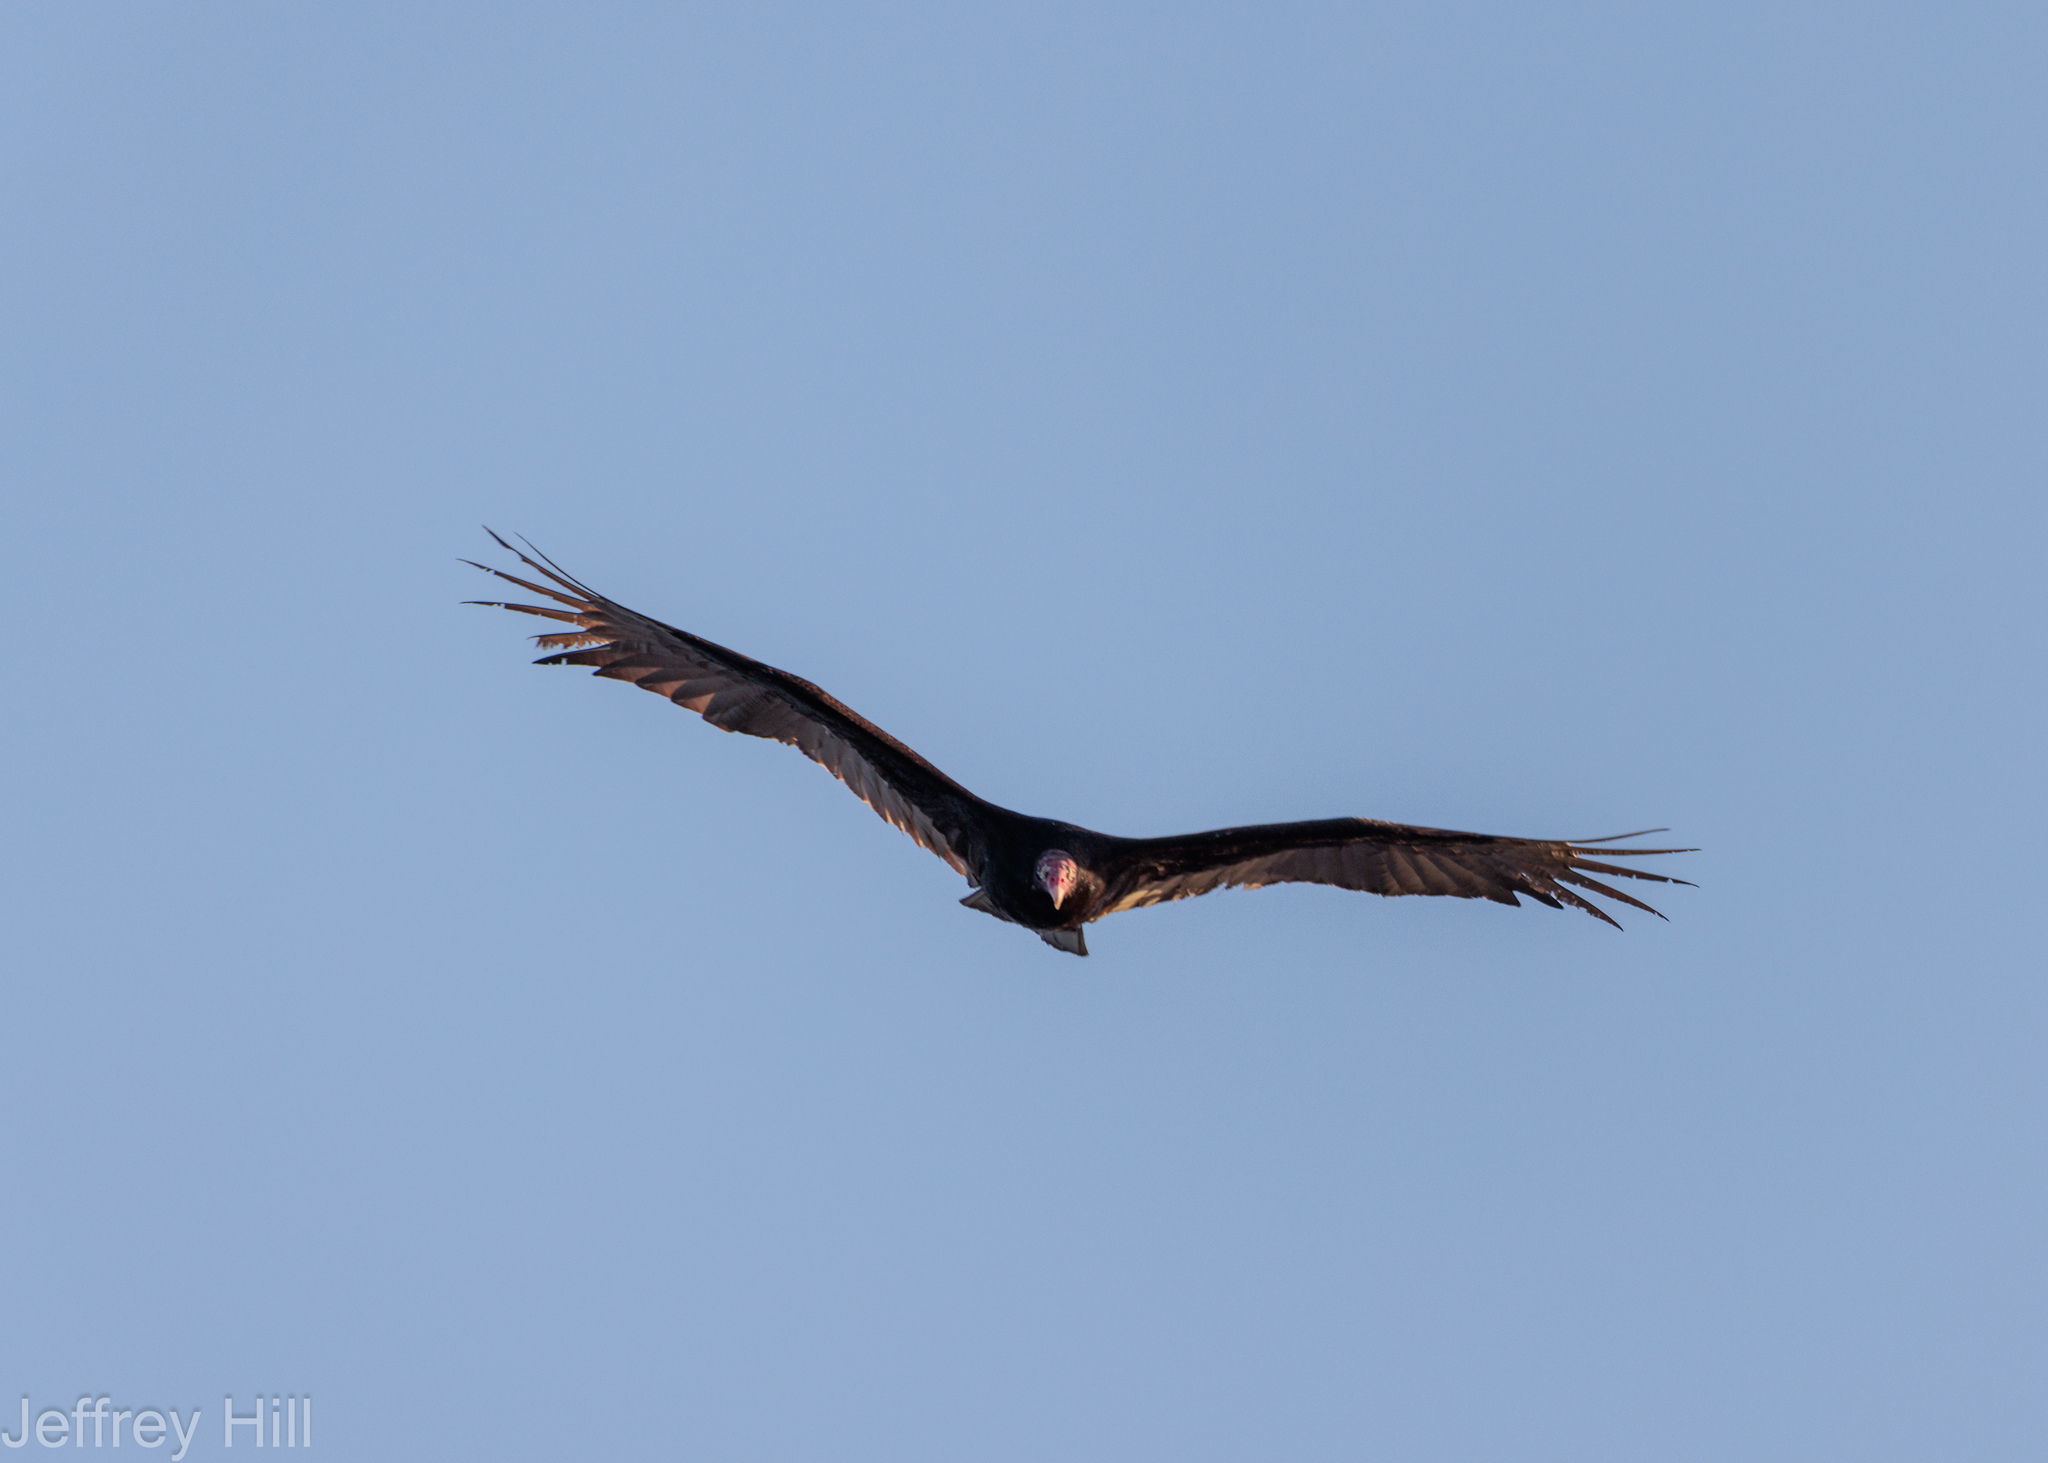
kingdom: Animalia
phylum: Chordata
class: Aves
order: Accipitriformes
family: Cathartidae
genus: Cathartes
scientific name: Cathartes aura
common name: Turkey vulture
